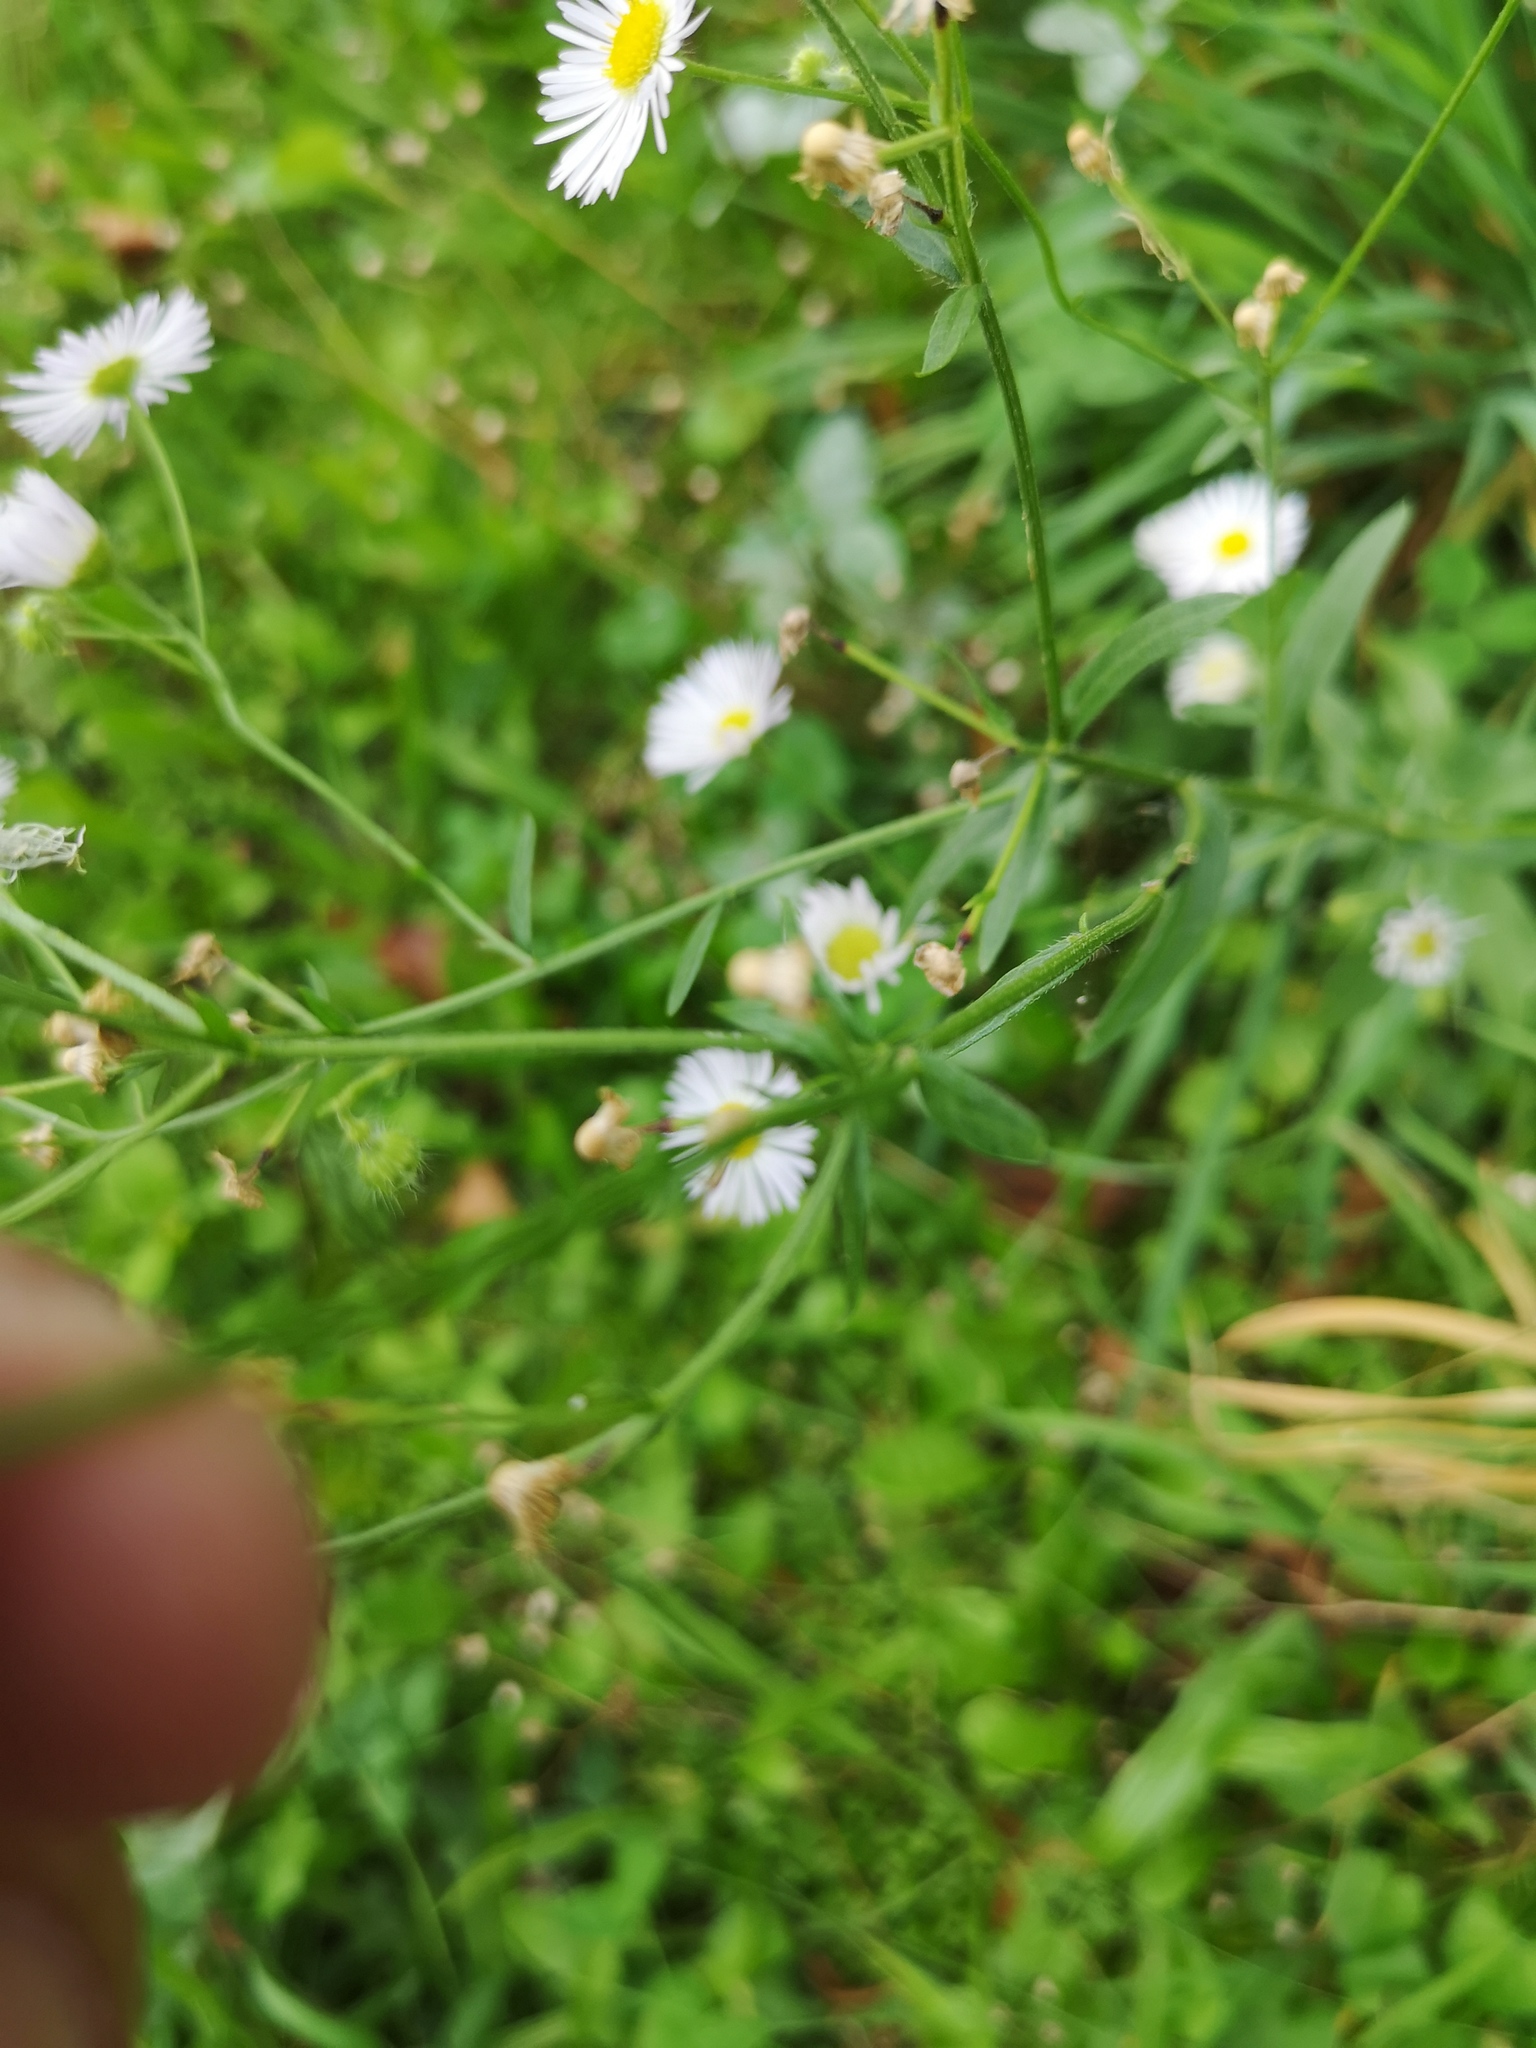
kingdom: Plantae
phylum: Tracheophyta
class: Magnoliopsida
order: Asterales
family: Asteraceae
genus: Erigeron
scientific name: Erigeron annuus
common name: Tall fleabane
